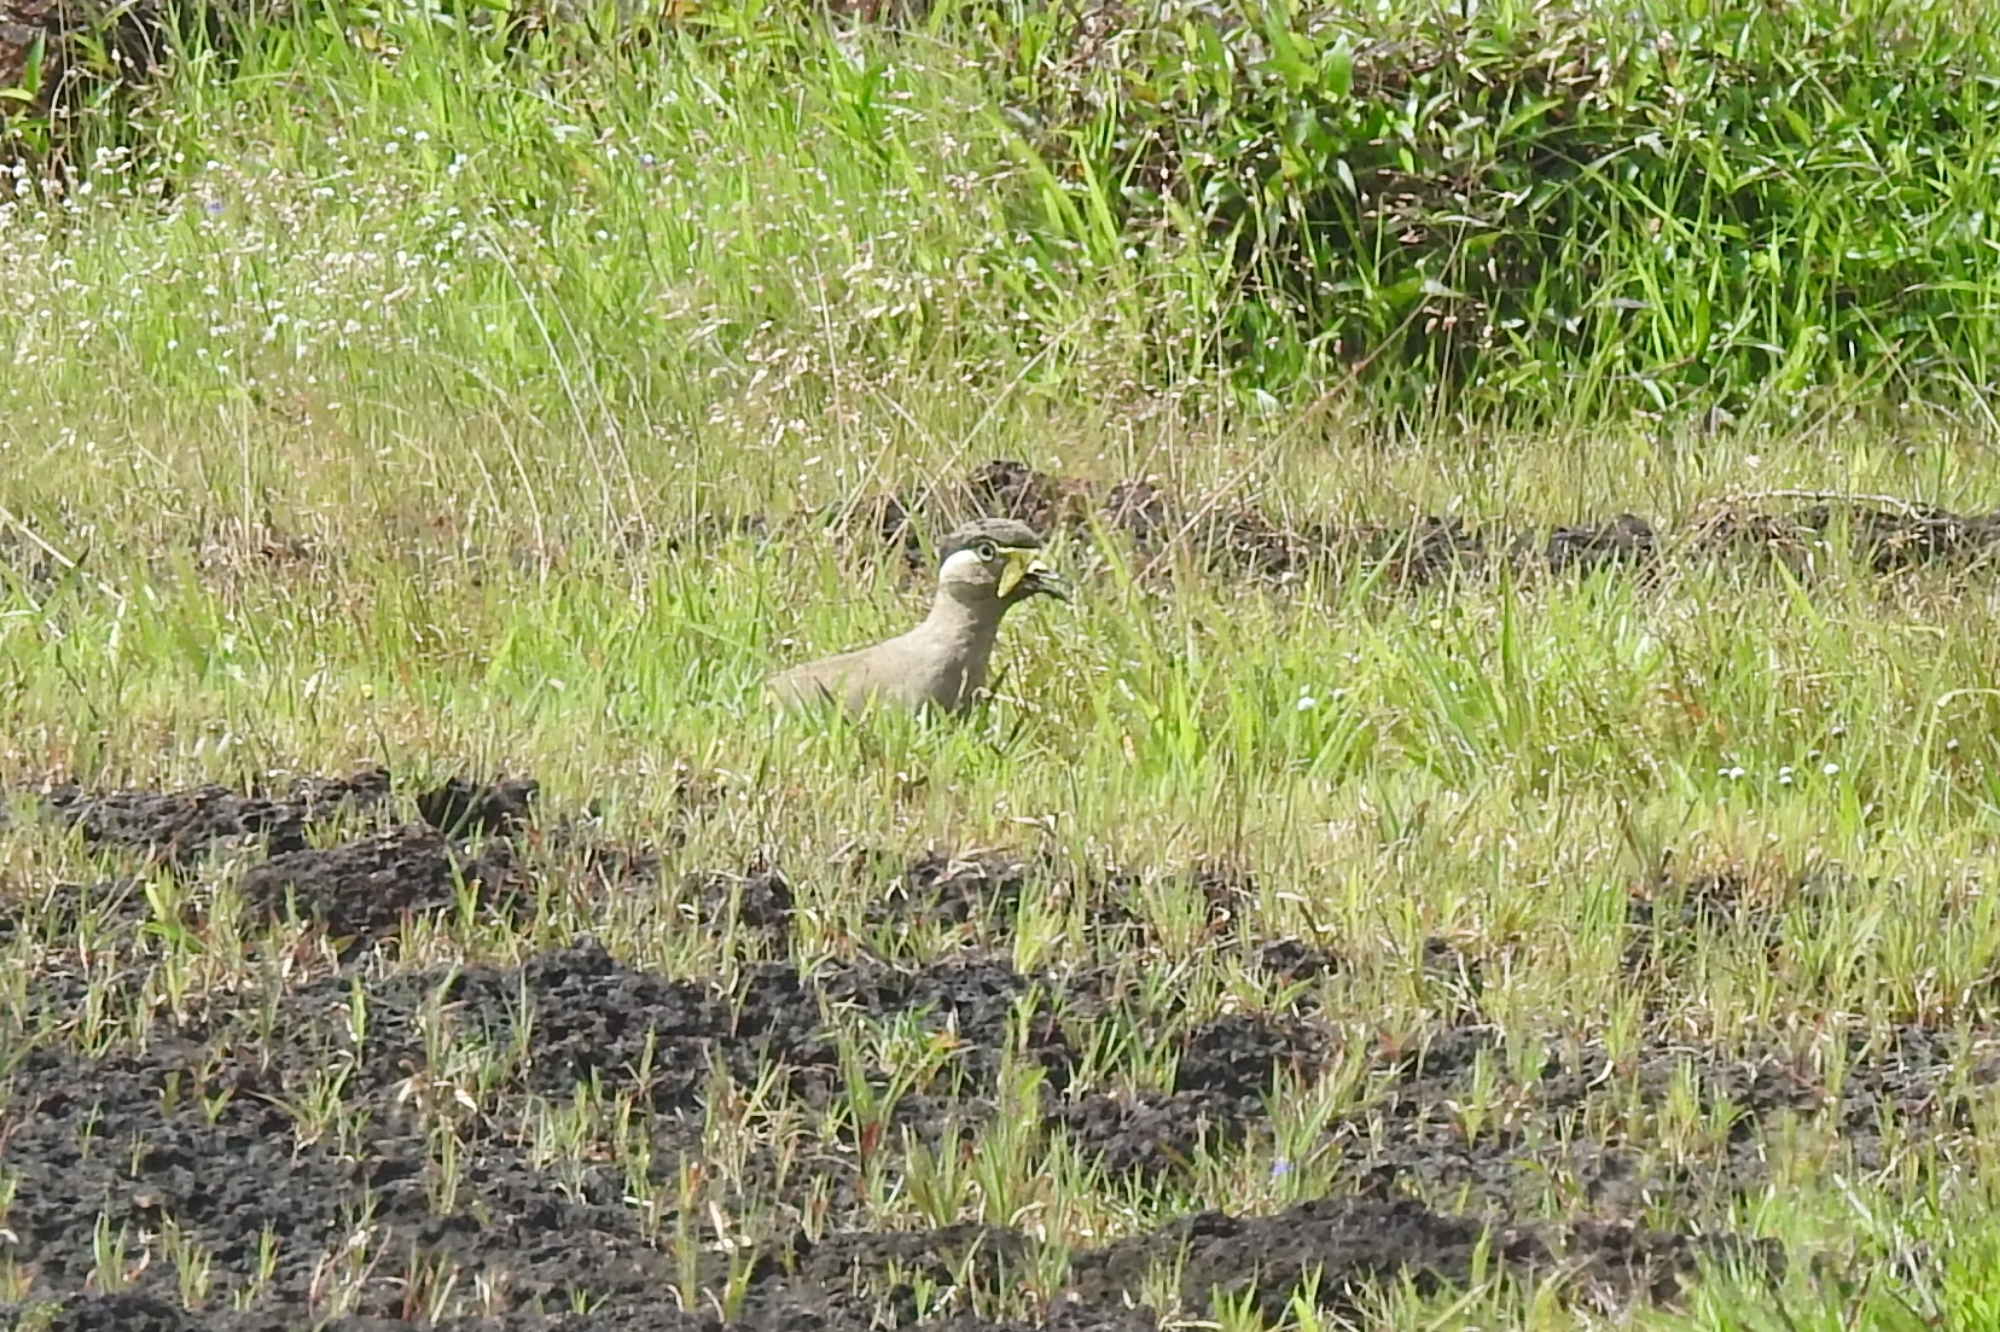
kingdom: Animalia
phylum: Chordata
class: Aves
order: Charadriiformes
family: Charadriidae
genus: Vanellus
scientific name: Vanellus malabaricus
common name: Yellow-wattled lapwing
